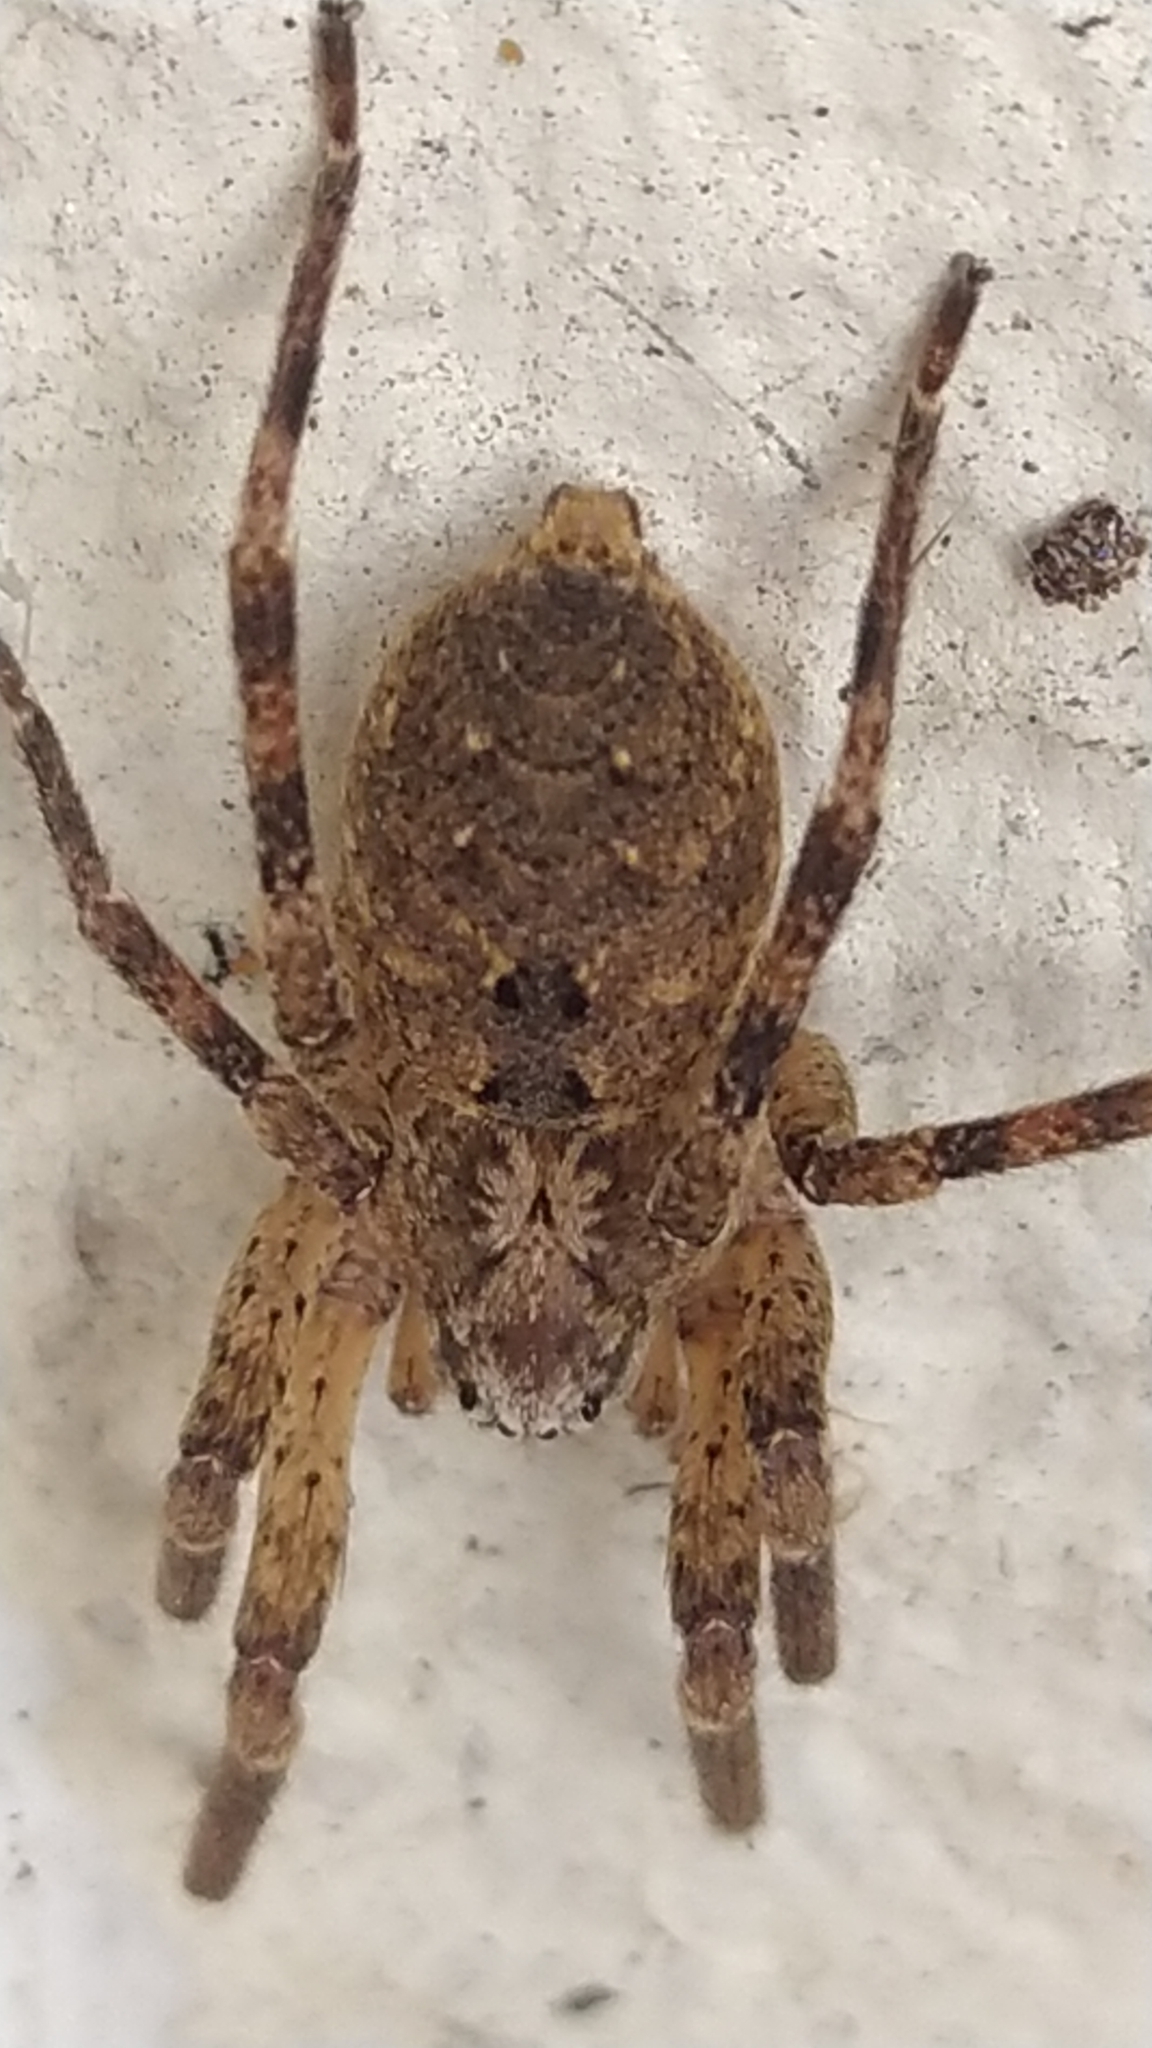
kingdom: Animalia
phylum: Arthropoda
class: Arachnida
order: Araneae
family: Zoropsidae
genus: Zoropsis
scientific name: Zoropsis spinimana
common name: Zoropsid spider
